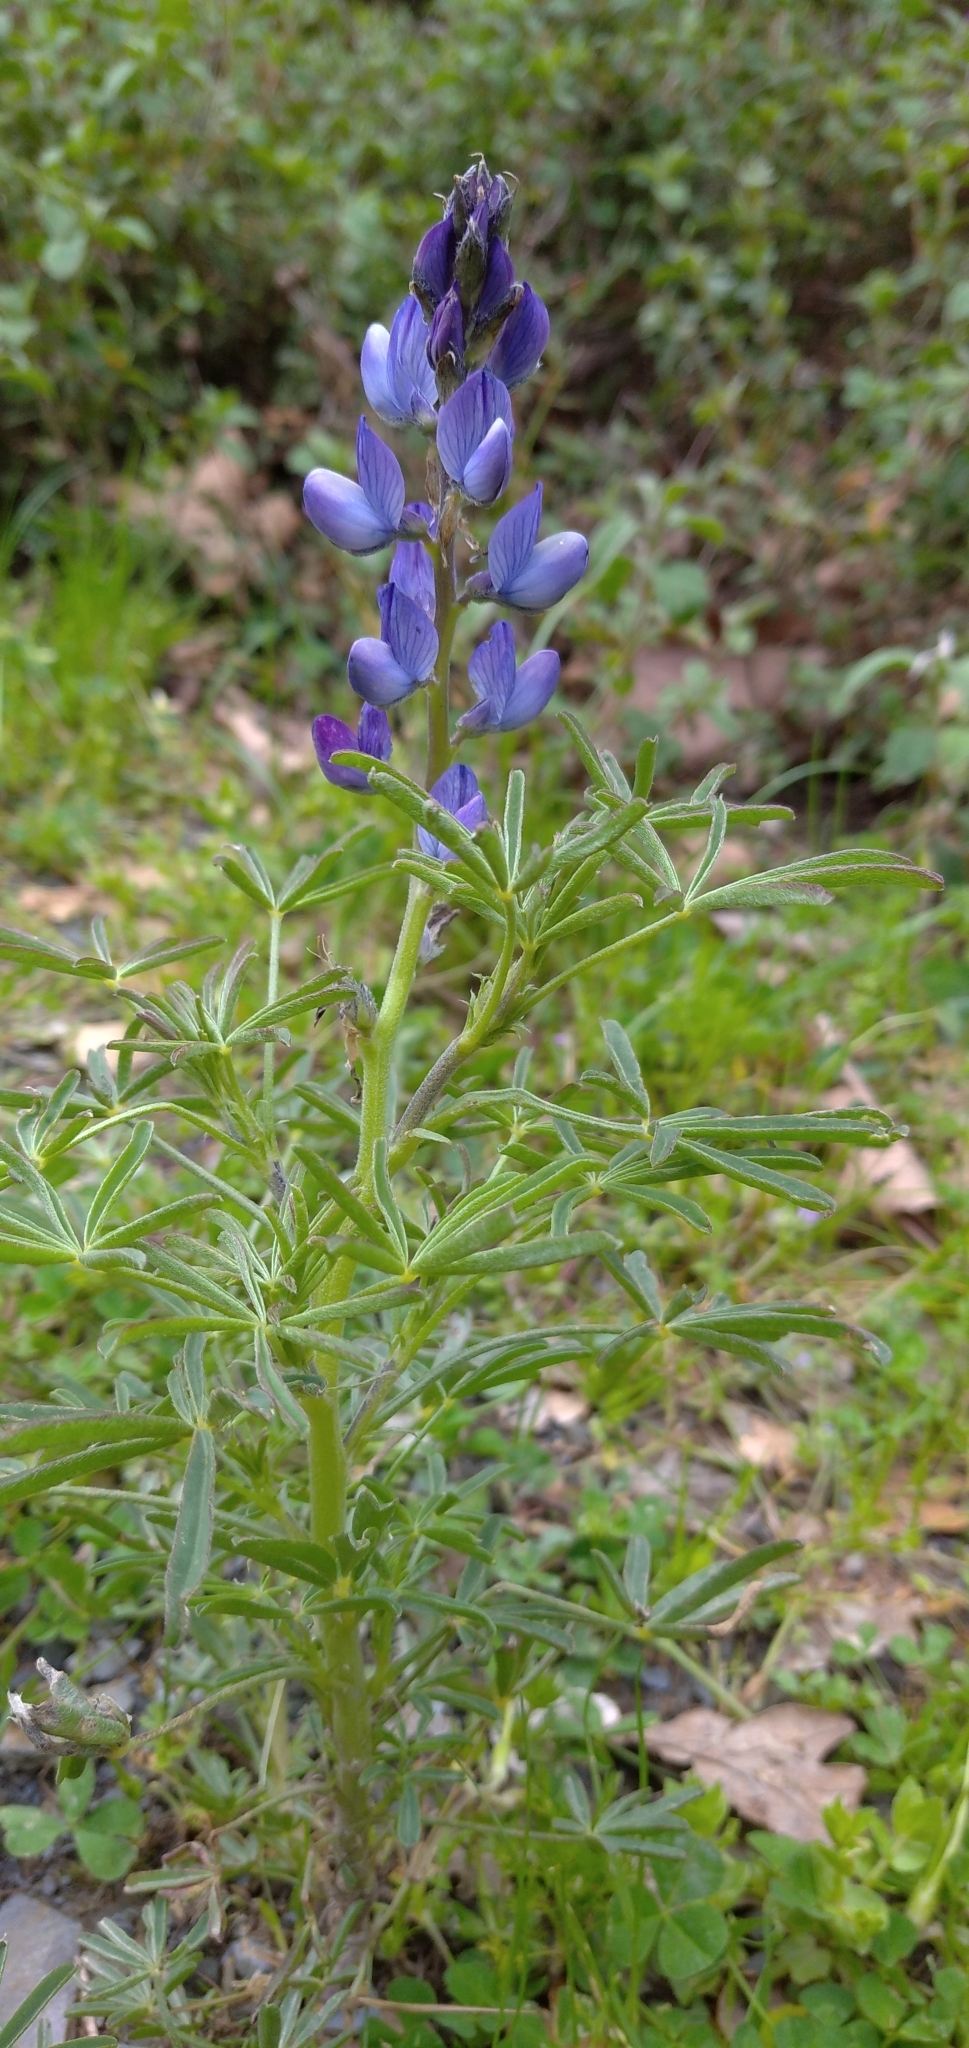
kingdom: Plantae
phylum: Tracheophyta
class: Magnoliopsida
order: Fabales
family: Fabaceae
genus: Lupinus
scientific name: Lupinus angustifolius
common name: Narrow-leaved lupin
